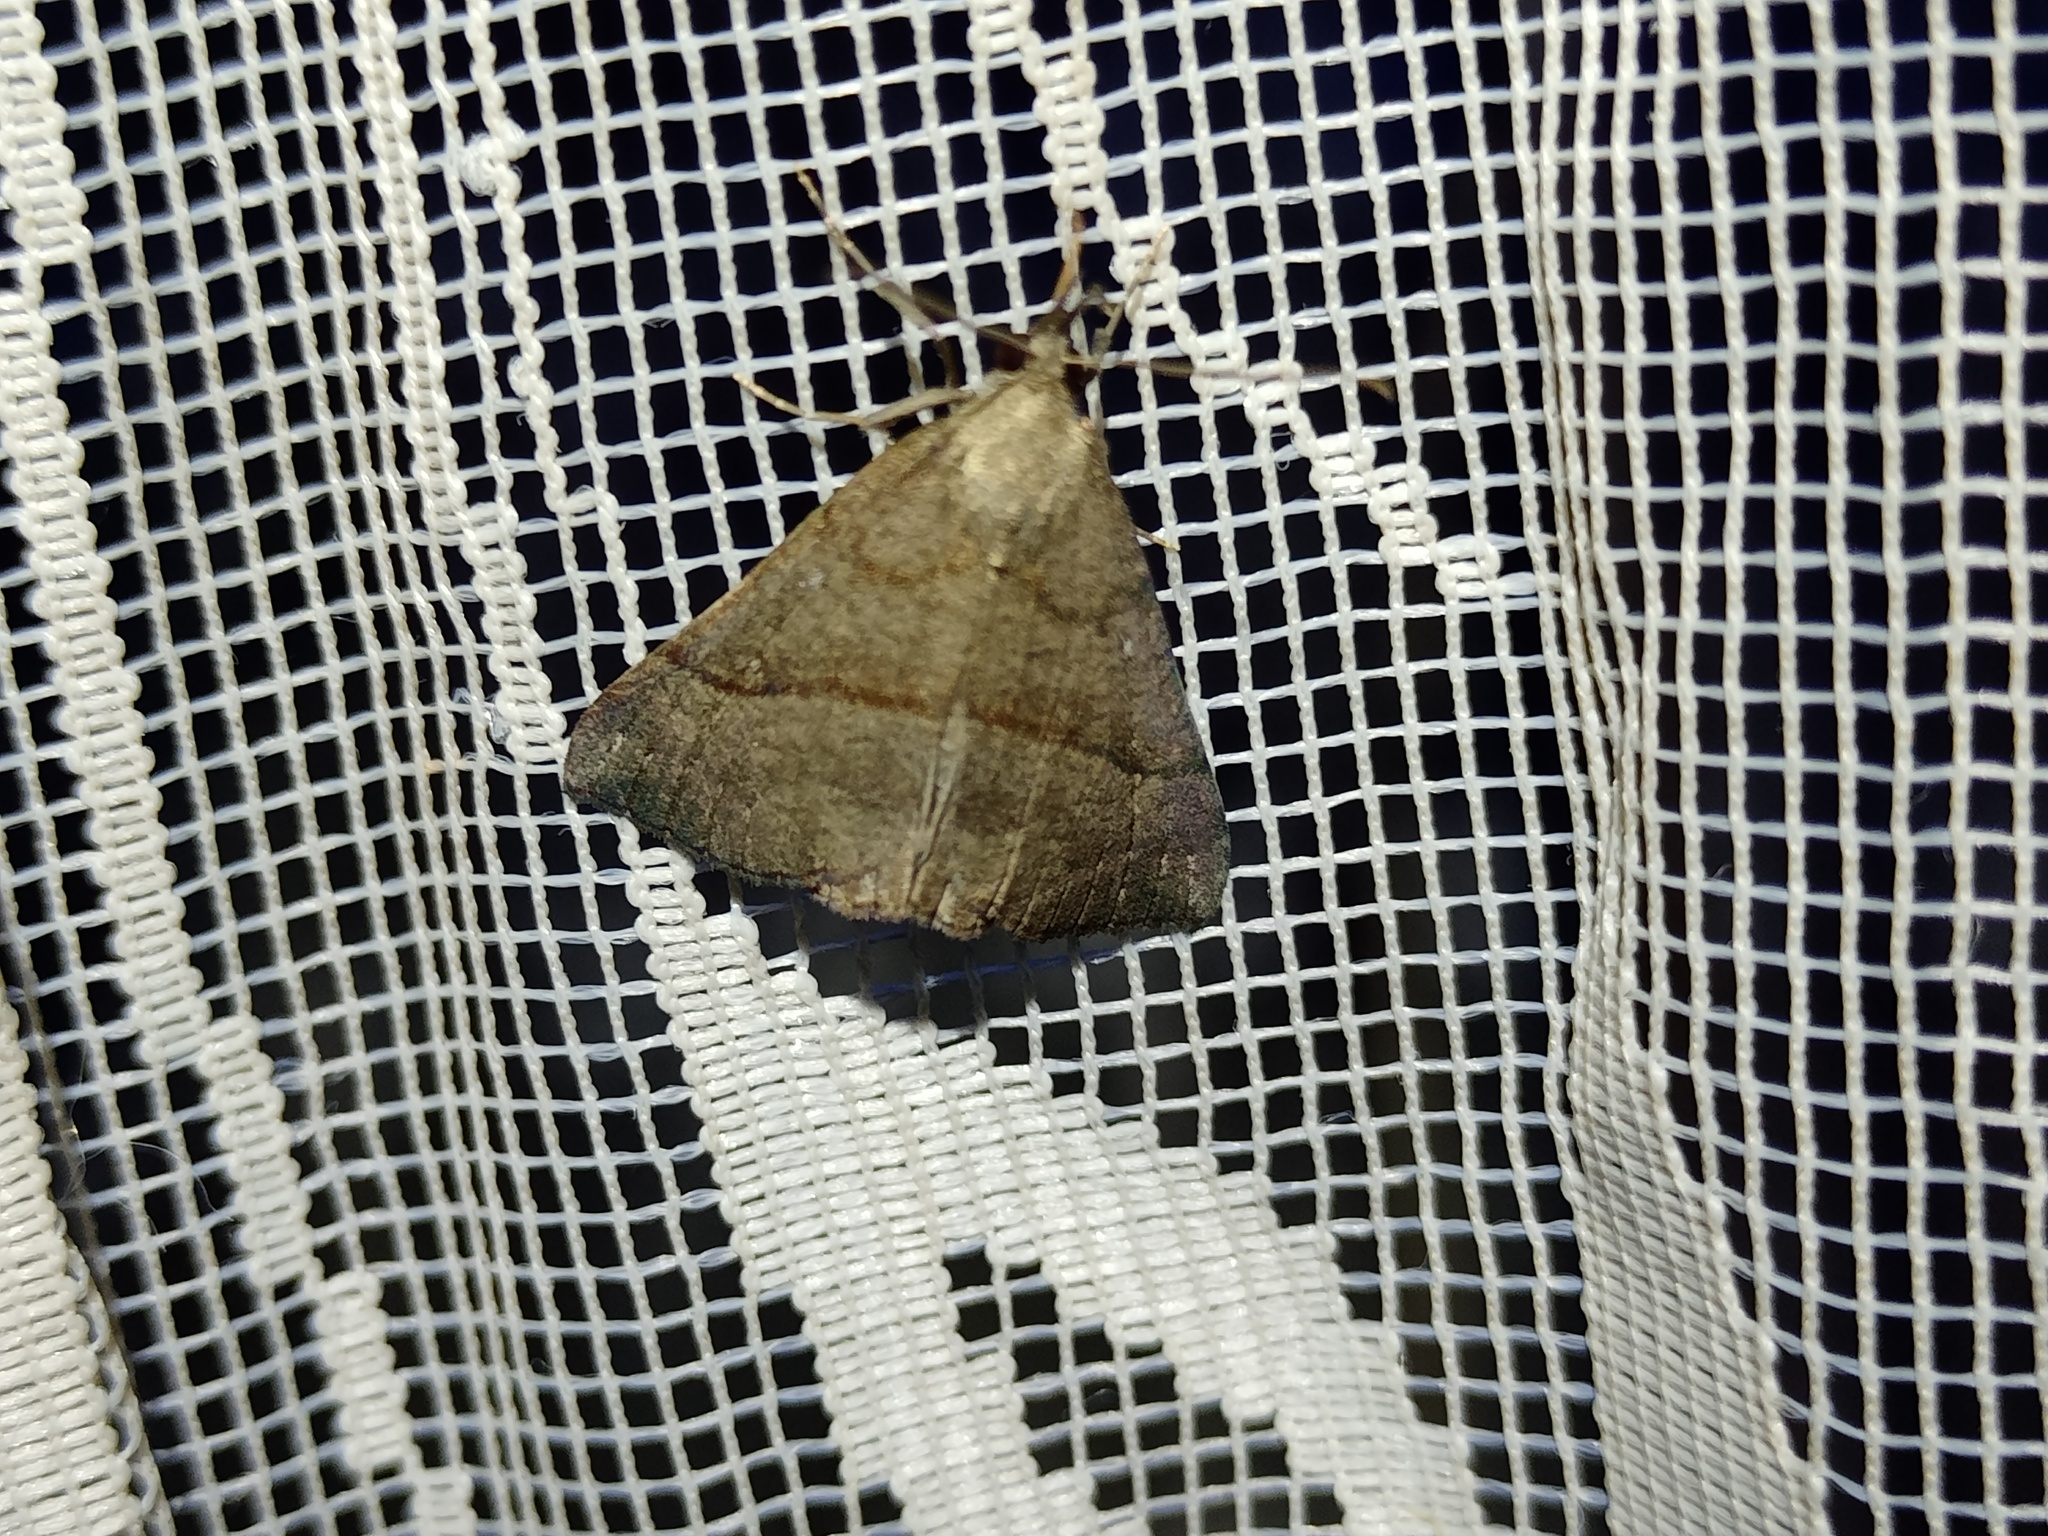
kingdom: Animalia
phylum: Arthropoda
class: Insecta
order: Lepidoptera
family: Erebidae
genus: Hypena
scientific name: Hypena proboscidalis
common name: Snout
